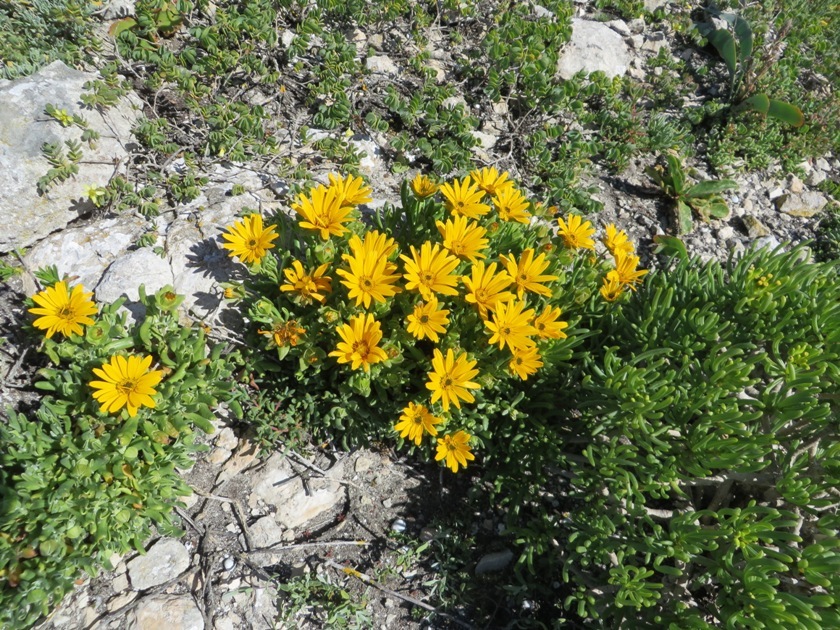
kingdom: Plantae
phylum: Tracheophyta
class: Magnoliopsida
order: Asterales
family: Asteraceae
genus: Didelta
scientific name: Didelta carnosa
